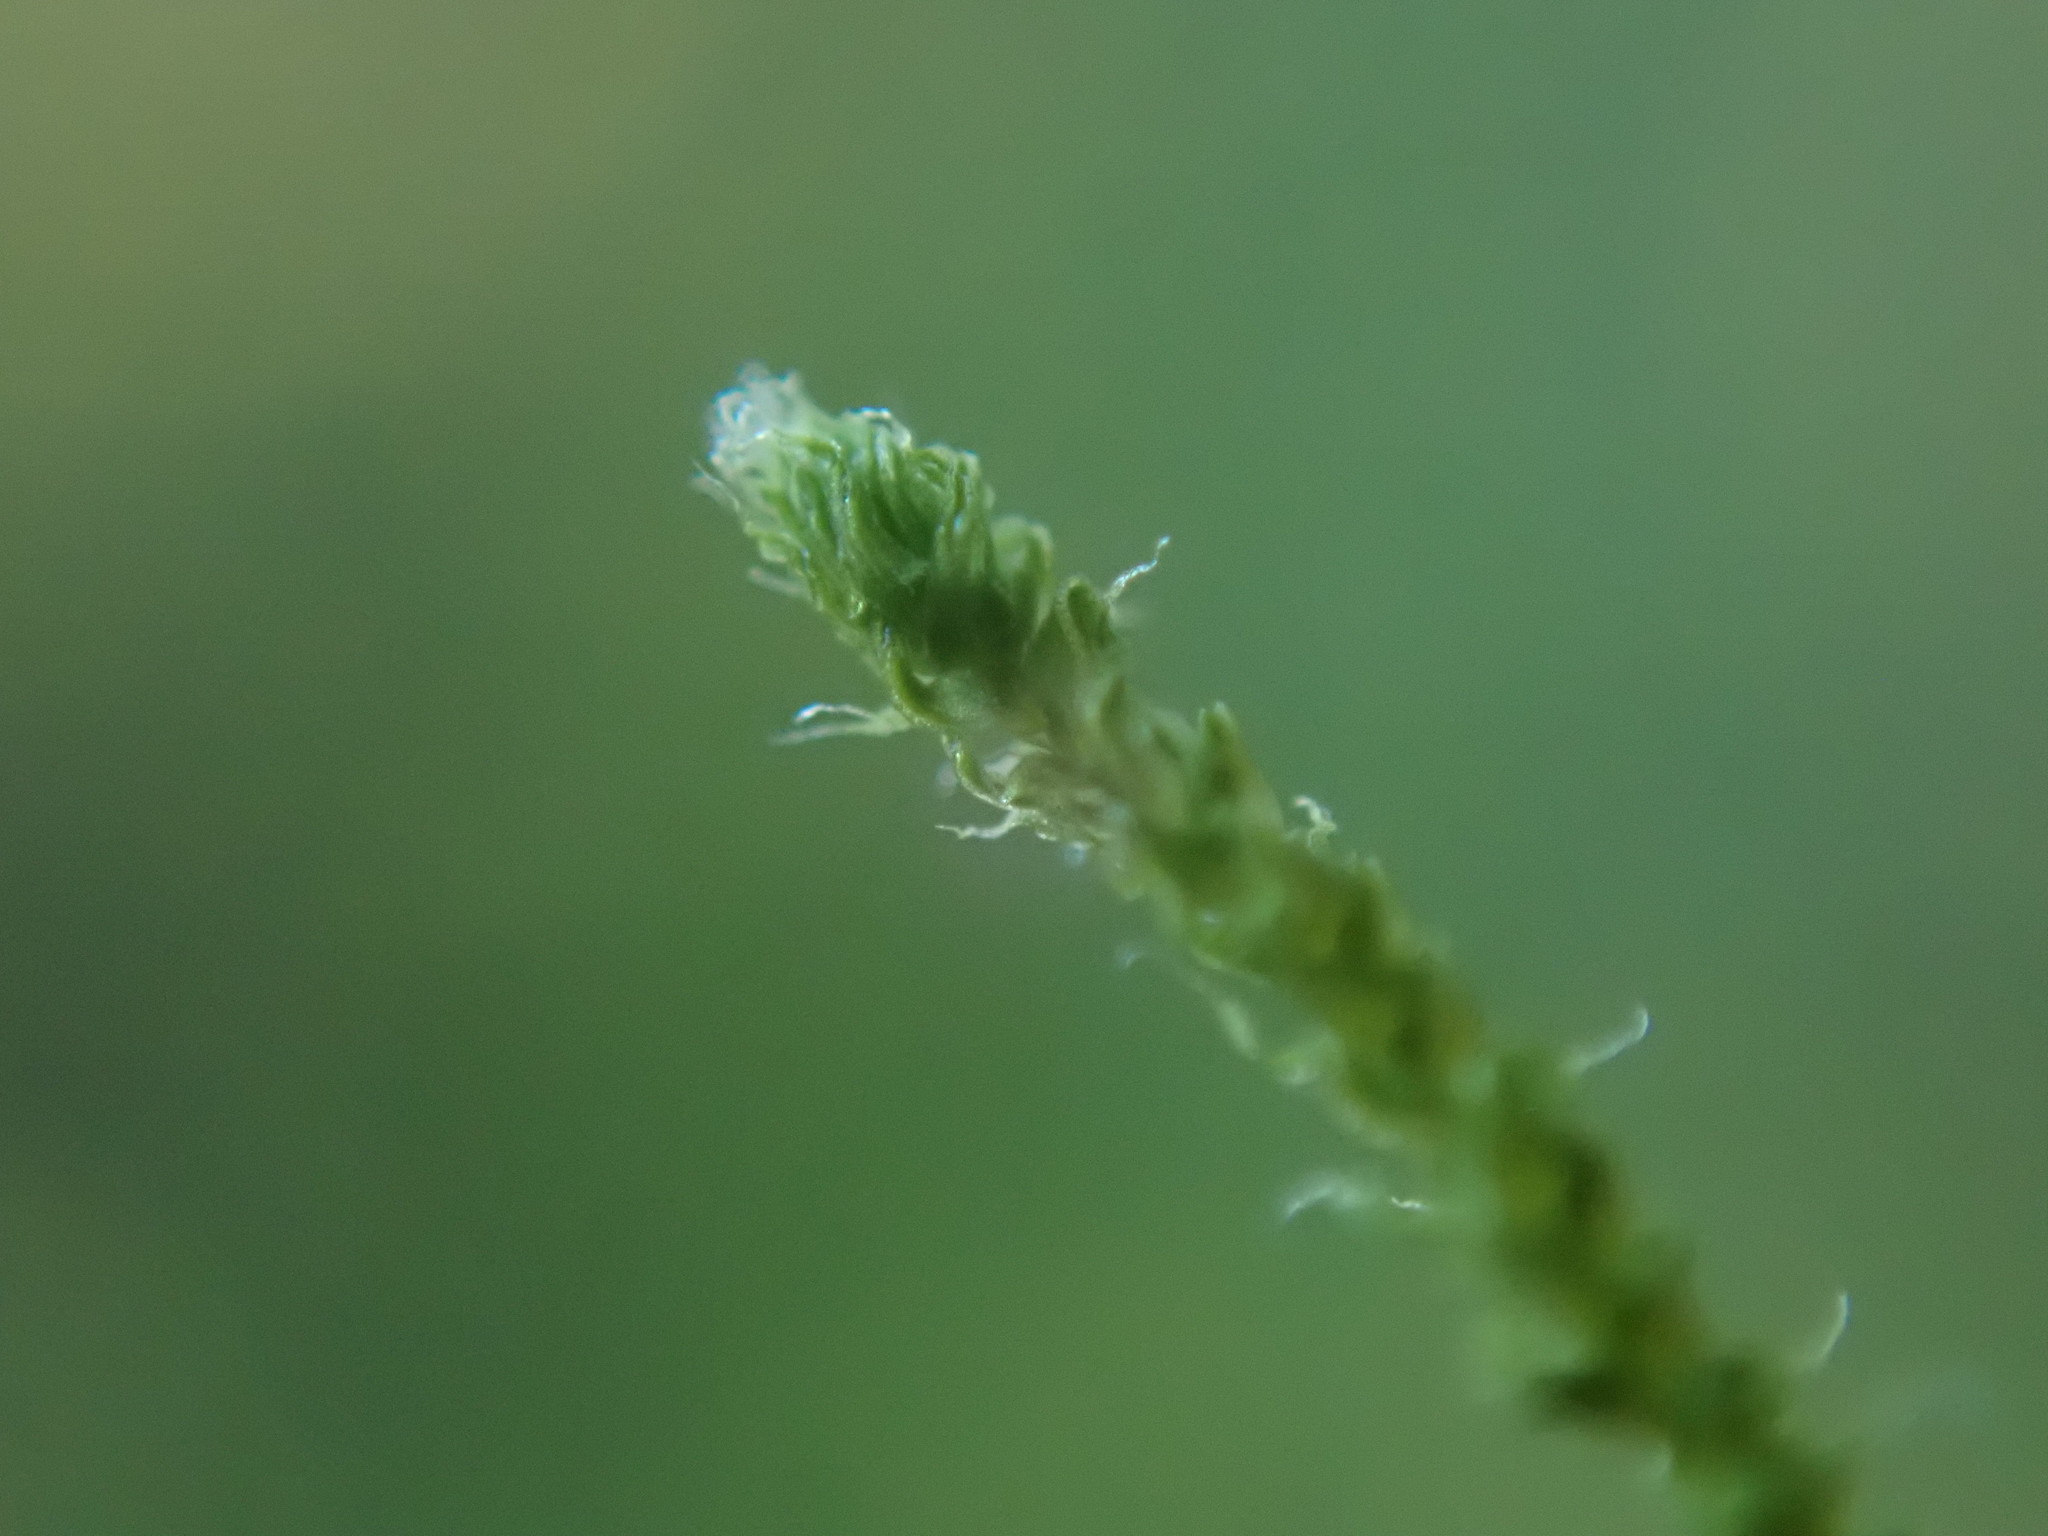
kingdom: Plantae
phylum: Bryophyta
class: Bryopsida
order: Hypnales
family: Brachytheciaceae
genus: Claopodium
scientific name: Claopodium crispifolium
